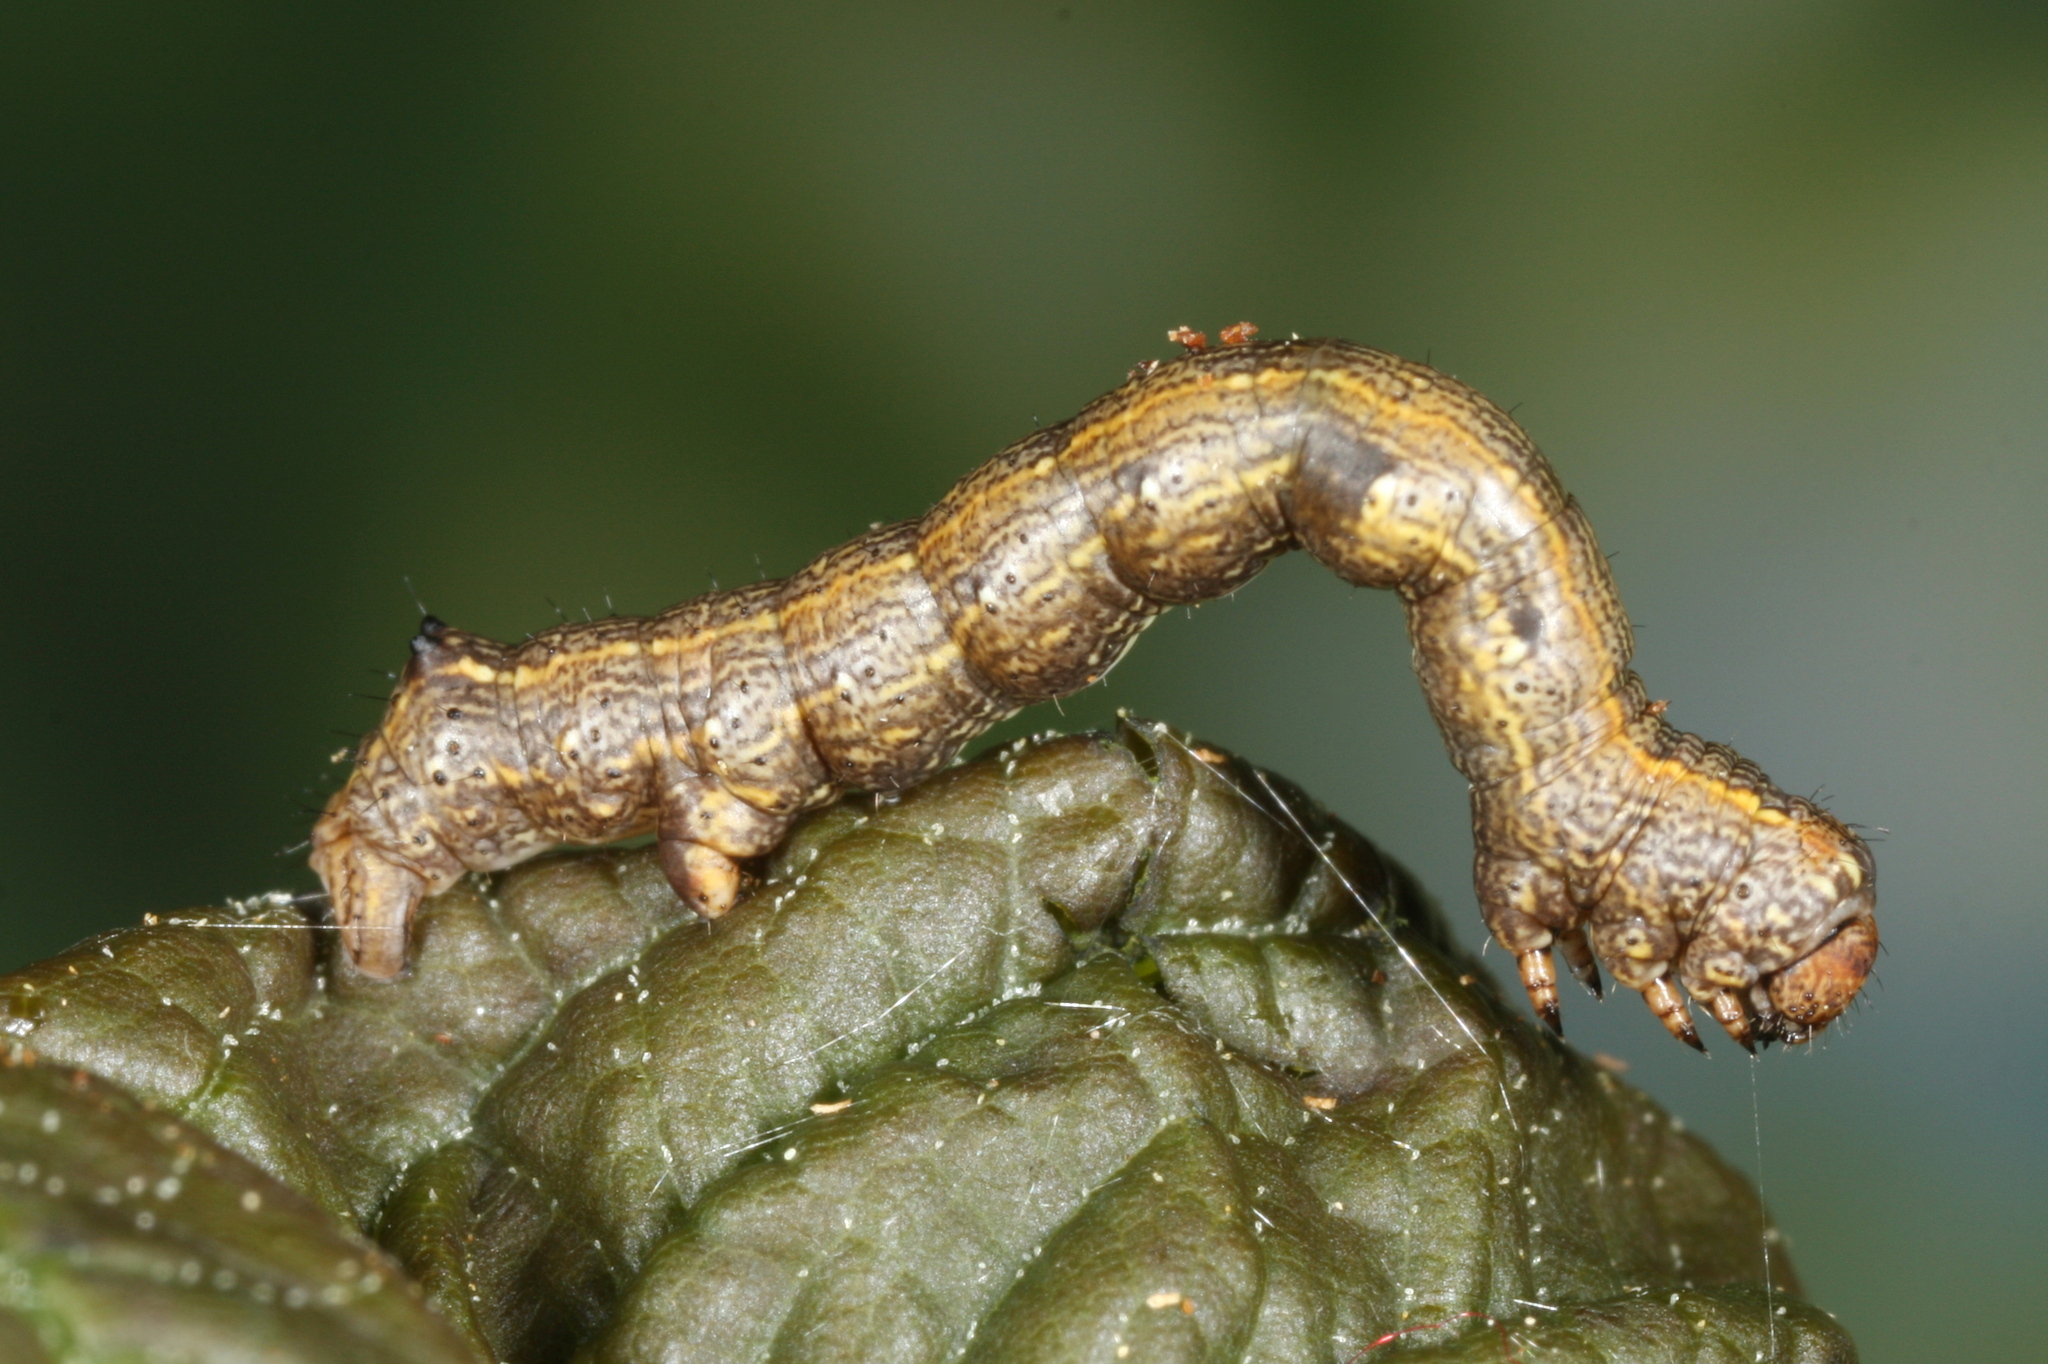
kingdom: Animalia
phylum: Arthropoda
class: Insecta
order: Lepidoptera
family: Geometridae
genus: Colotois
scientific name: Colotois pennaria
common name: Feathered thorn
